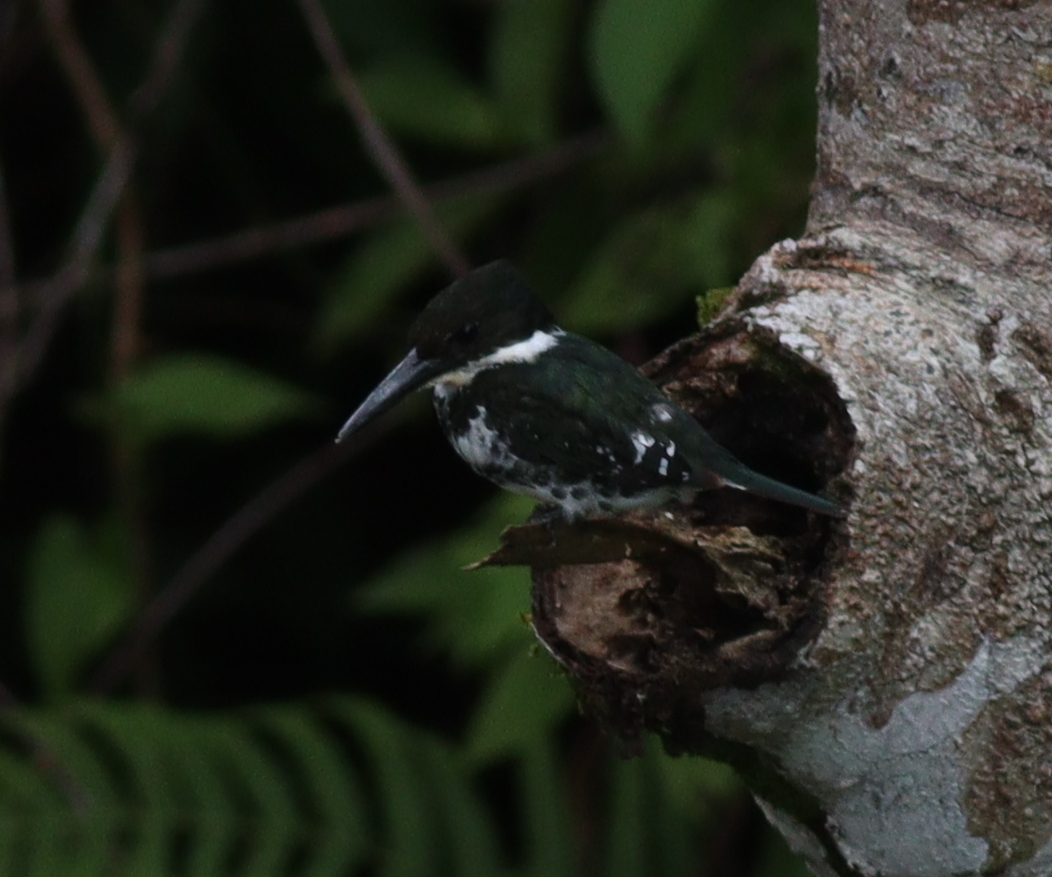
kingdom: Animalia
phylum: Chordata
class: Aves
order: Coraciiformes
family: Alcedinidae
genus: Chloroceryle
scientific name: Chloroceryle americana
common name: Green kingfisher
